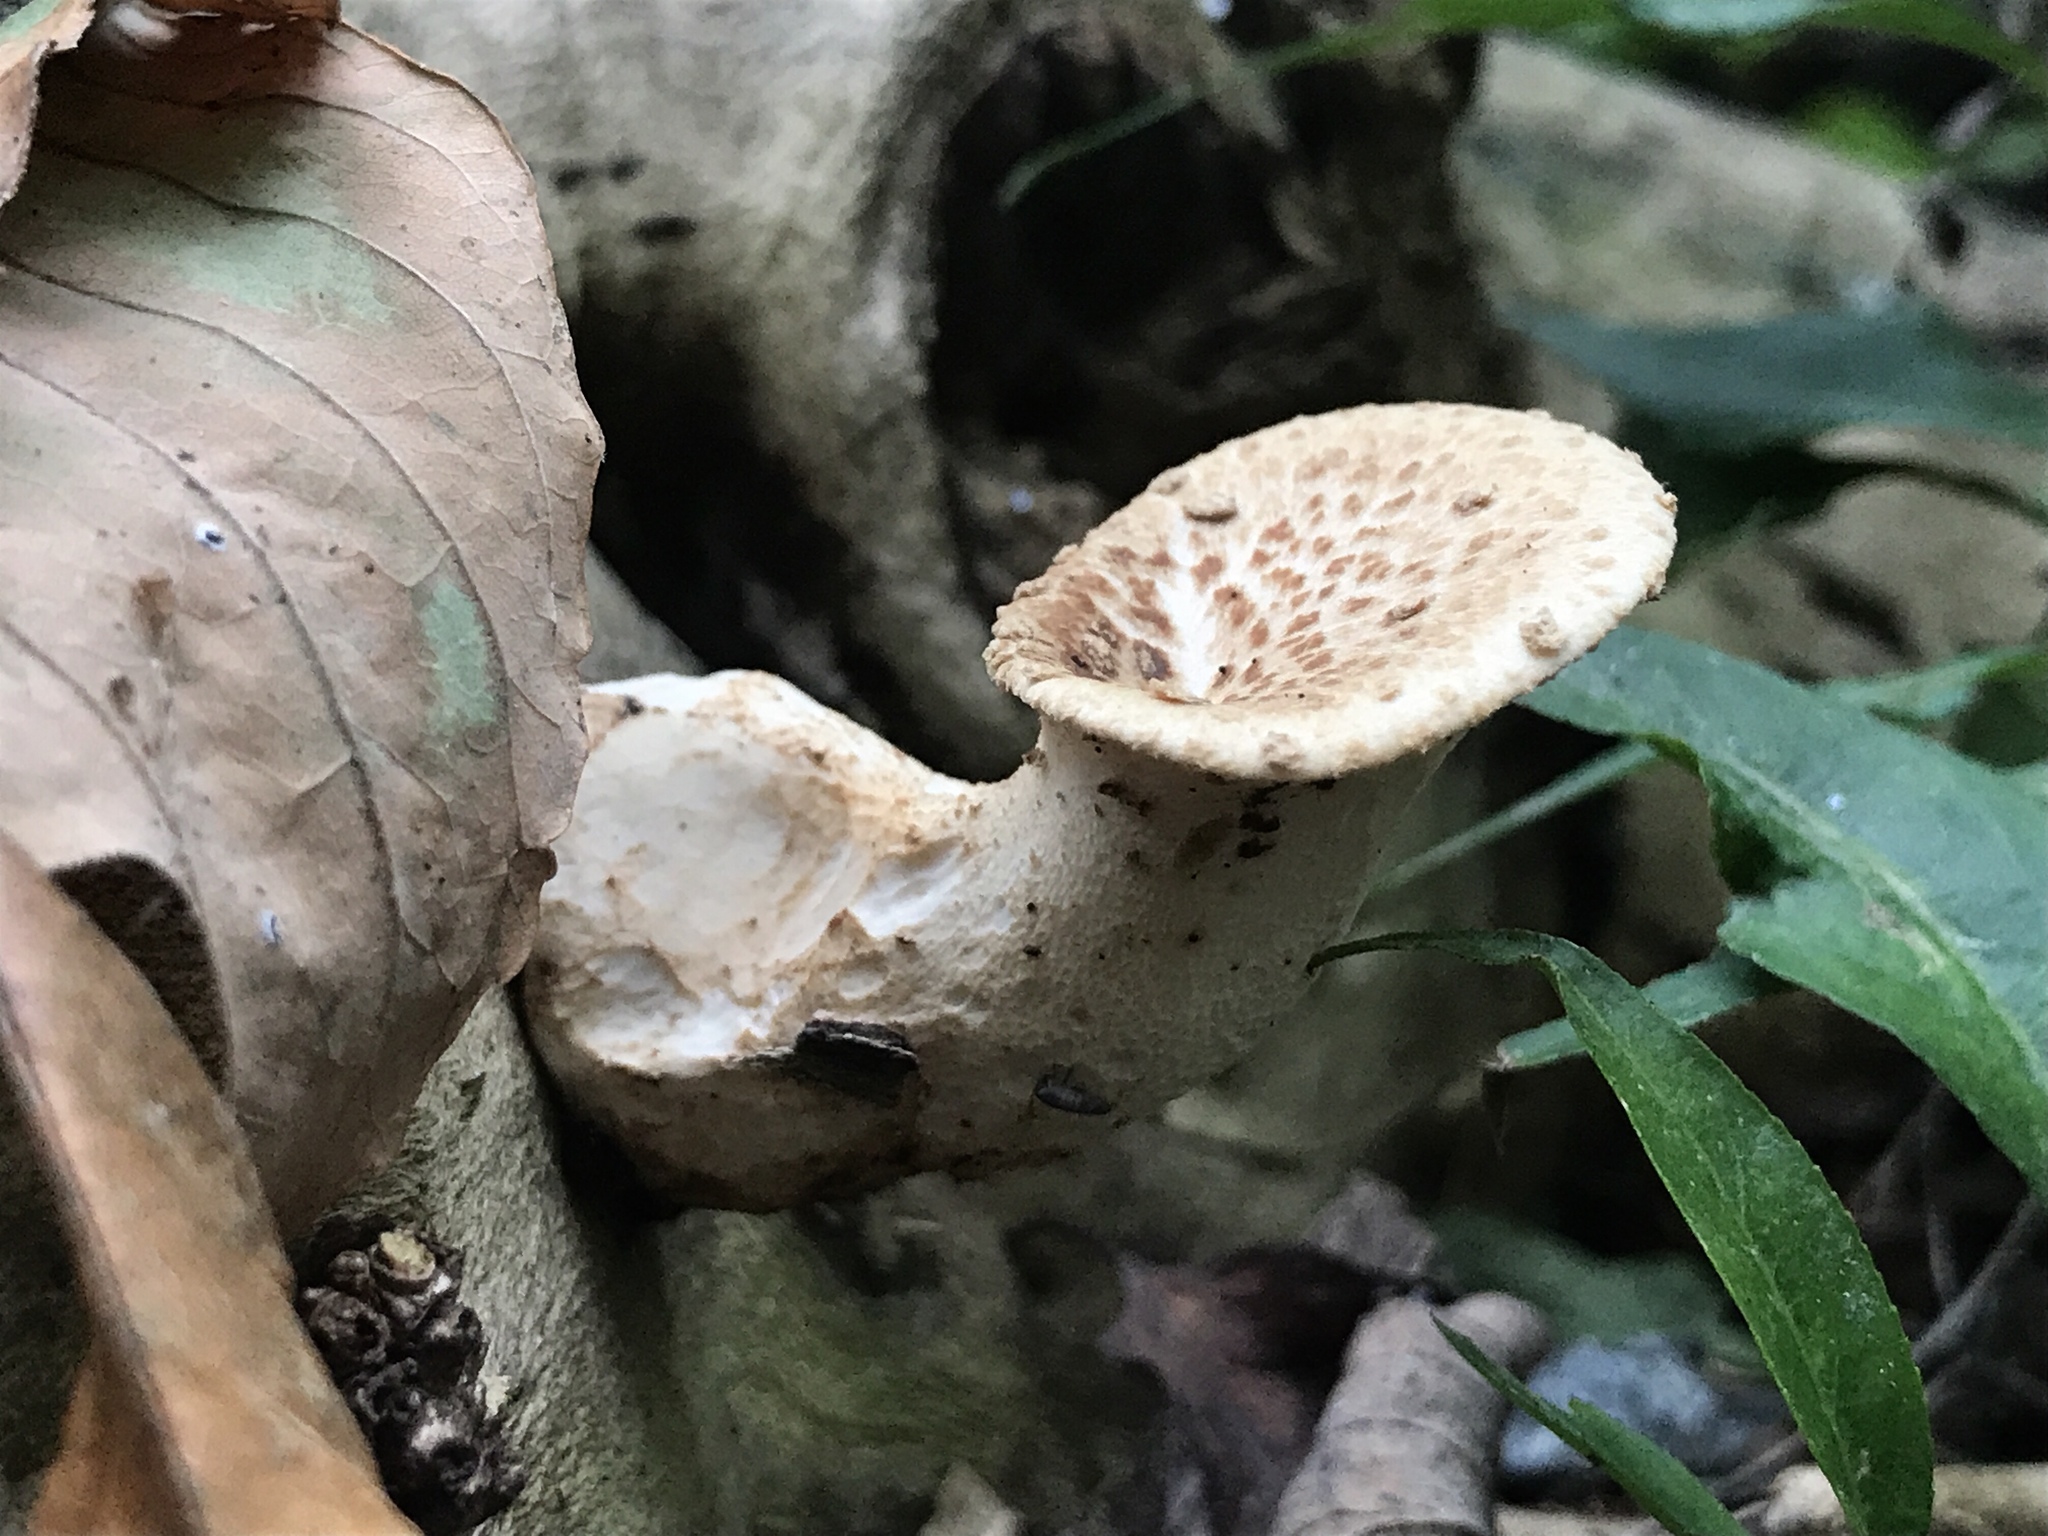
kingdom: Fungi
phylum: Basidiomycota
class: Agaricomycetes
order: Polyporales
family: Polyporaceae
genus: Cerioporus
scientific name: Cerioporus squamosus
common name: Dryad's saddle
